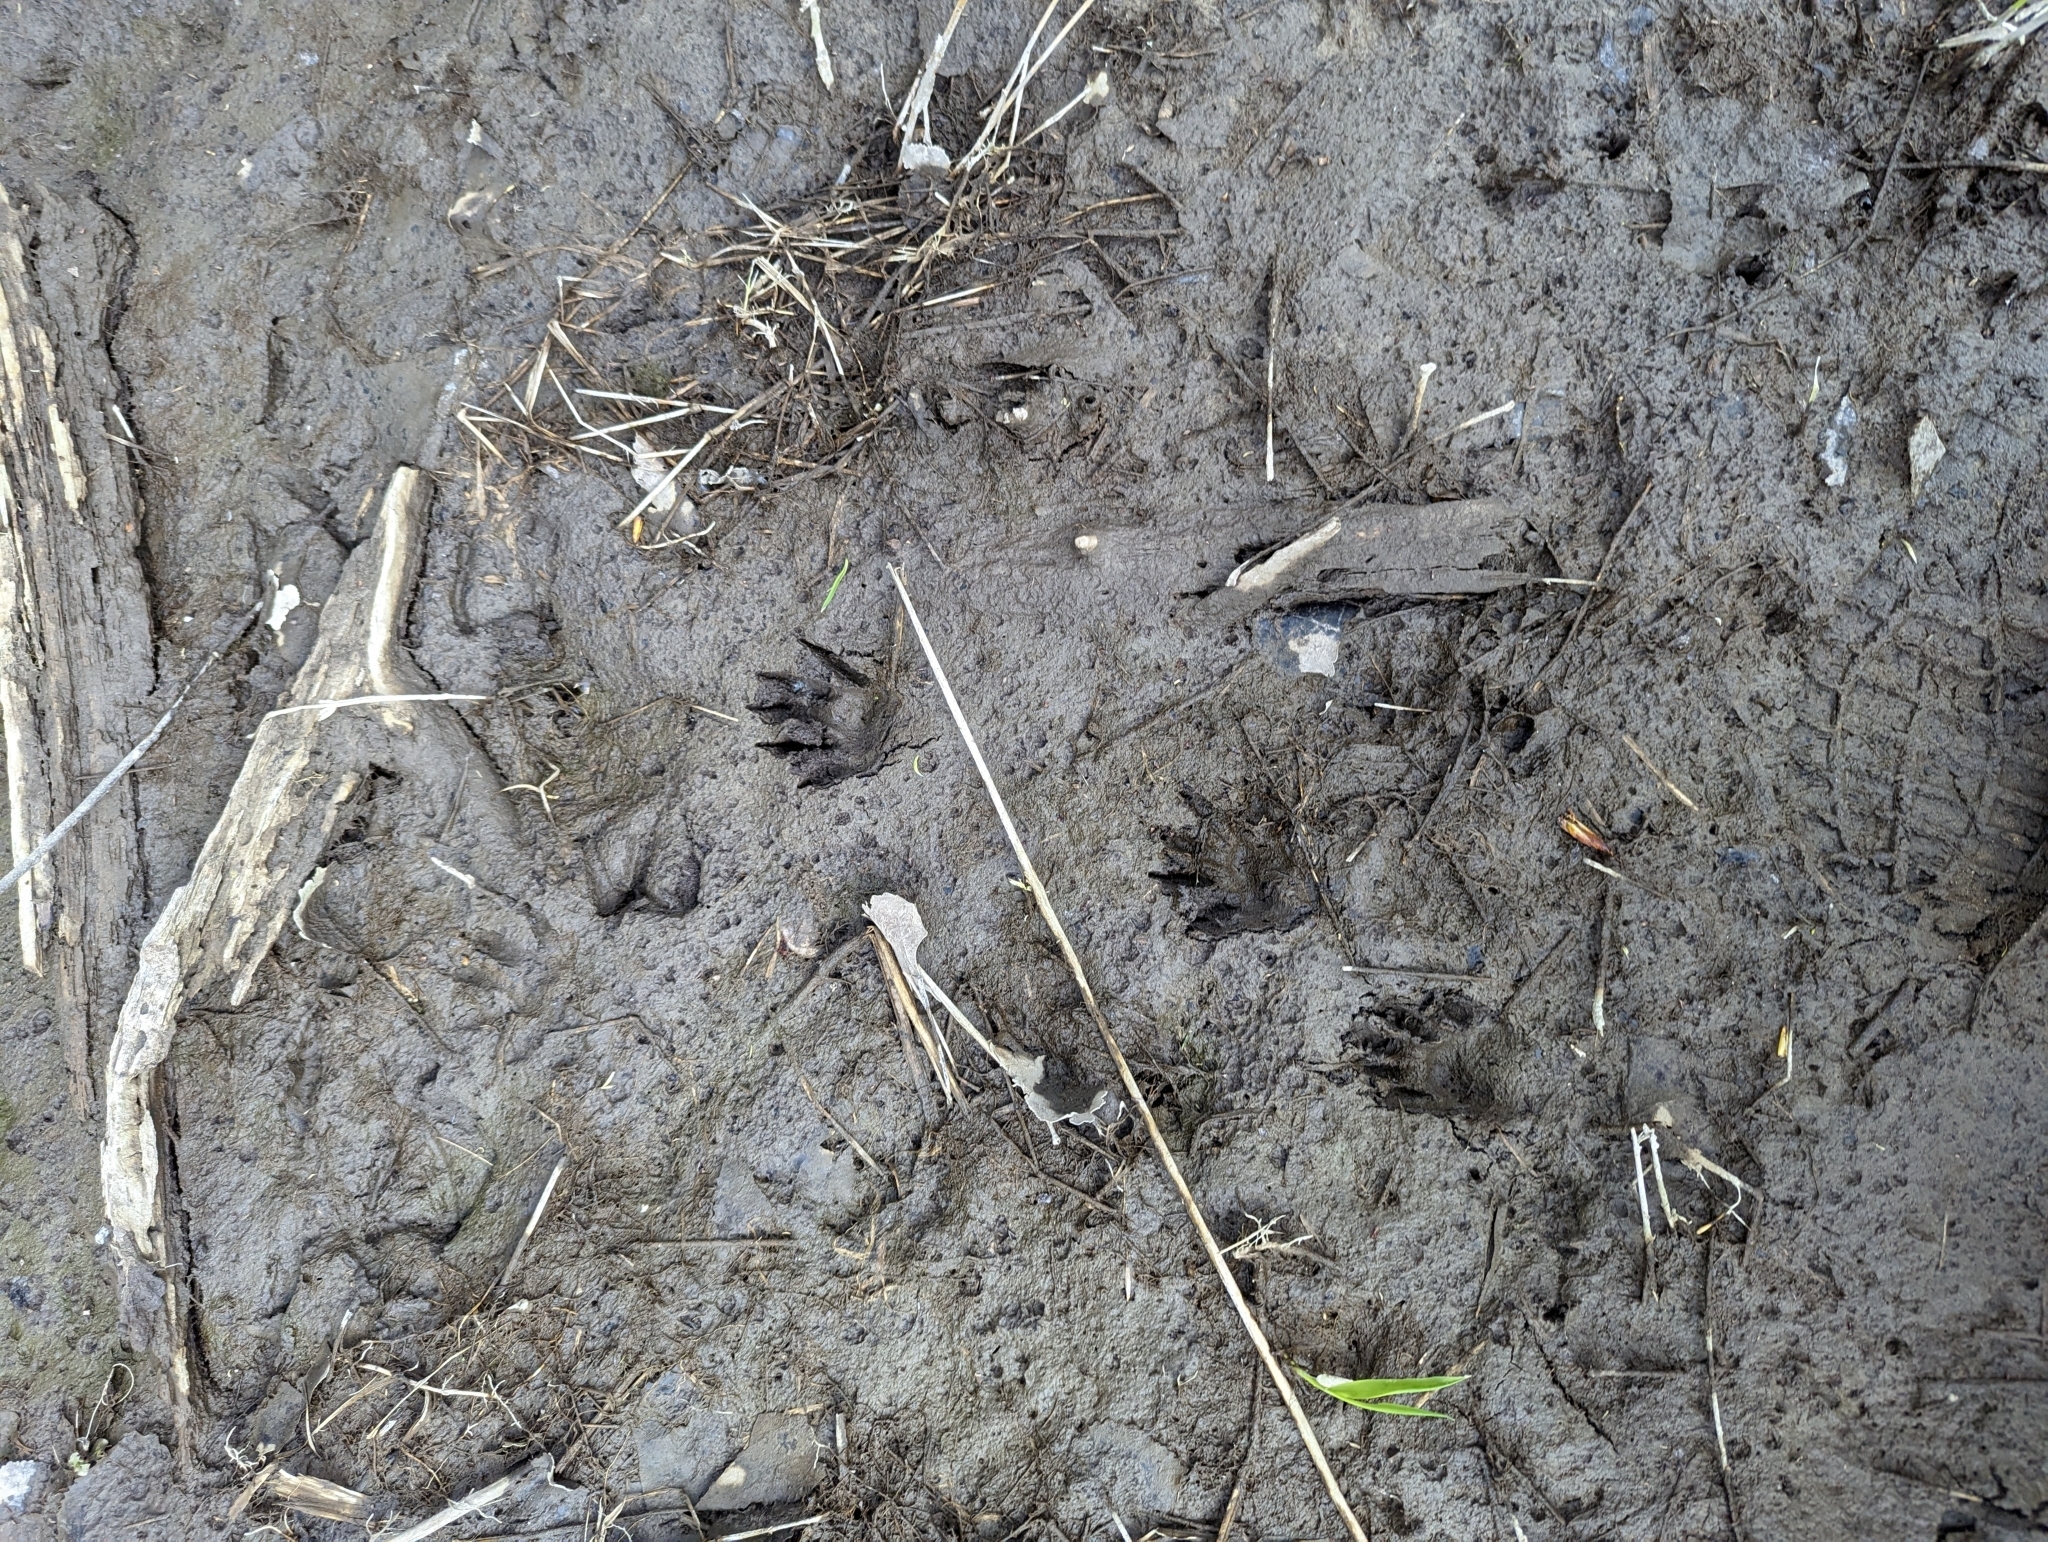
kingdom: Animalia
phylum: Chordata
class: Mammalia
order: Carnivora
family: Procyonidae
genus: Procyon
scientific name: Procyon lotor
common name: Raccoon
